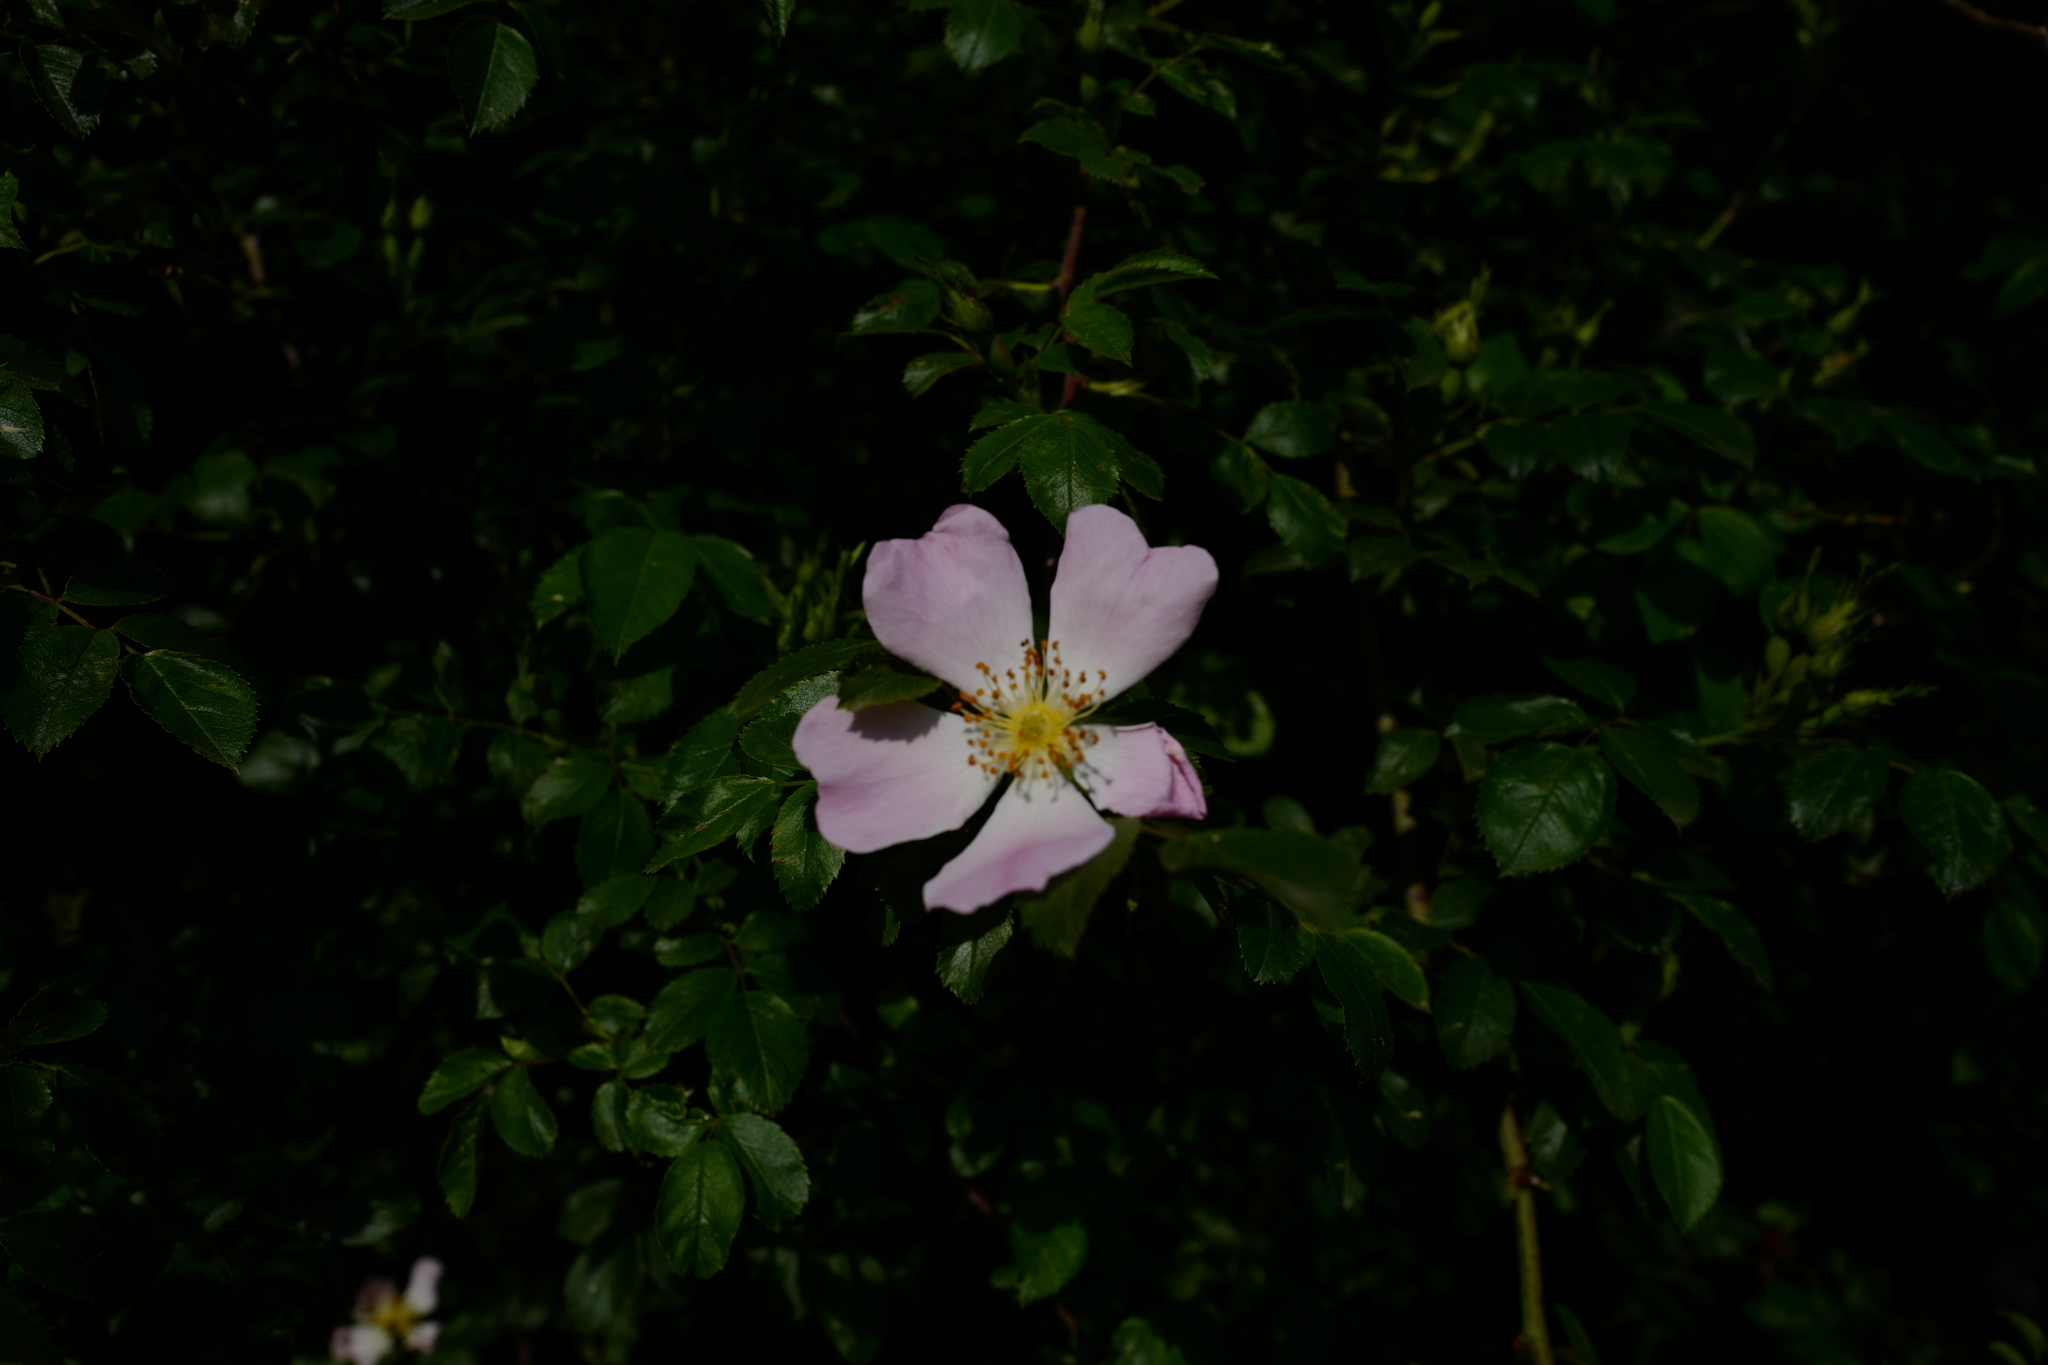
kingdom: Plantae
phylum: Tracheophyta
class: Magnoliopsida
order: Rosales
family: Rosaceae
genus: Rosa
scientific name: Rosa canina
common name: Dog rose
